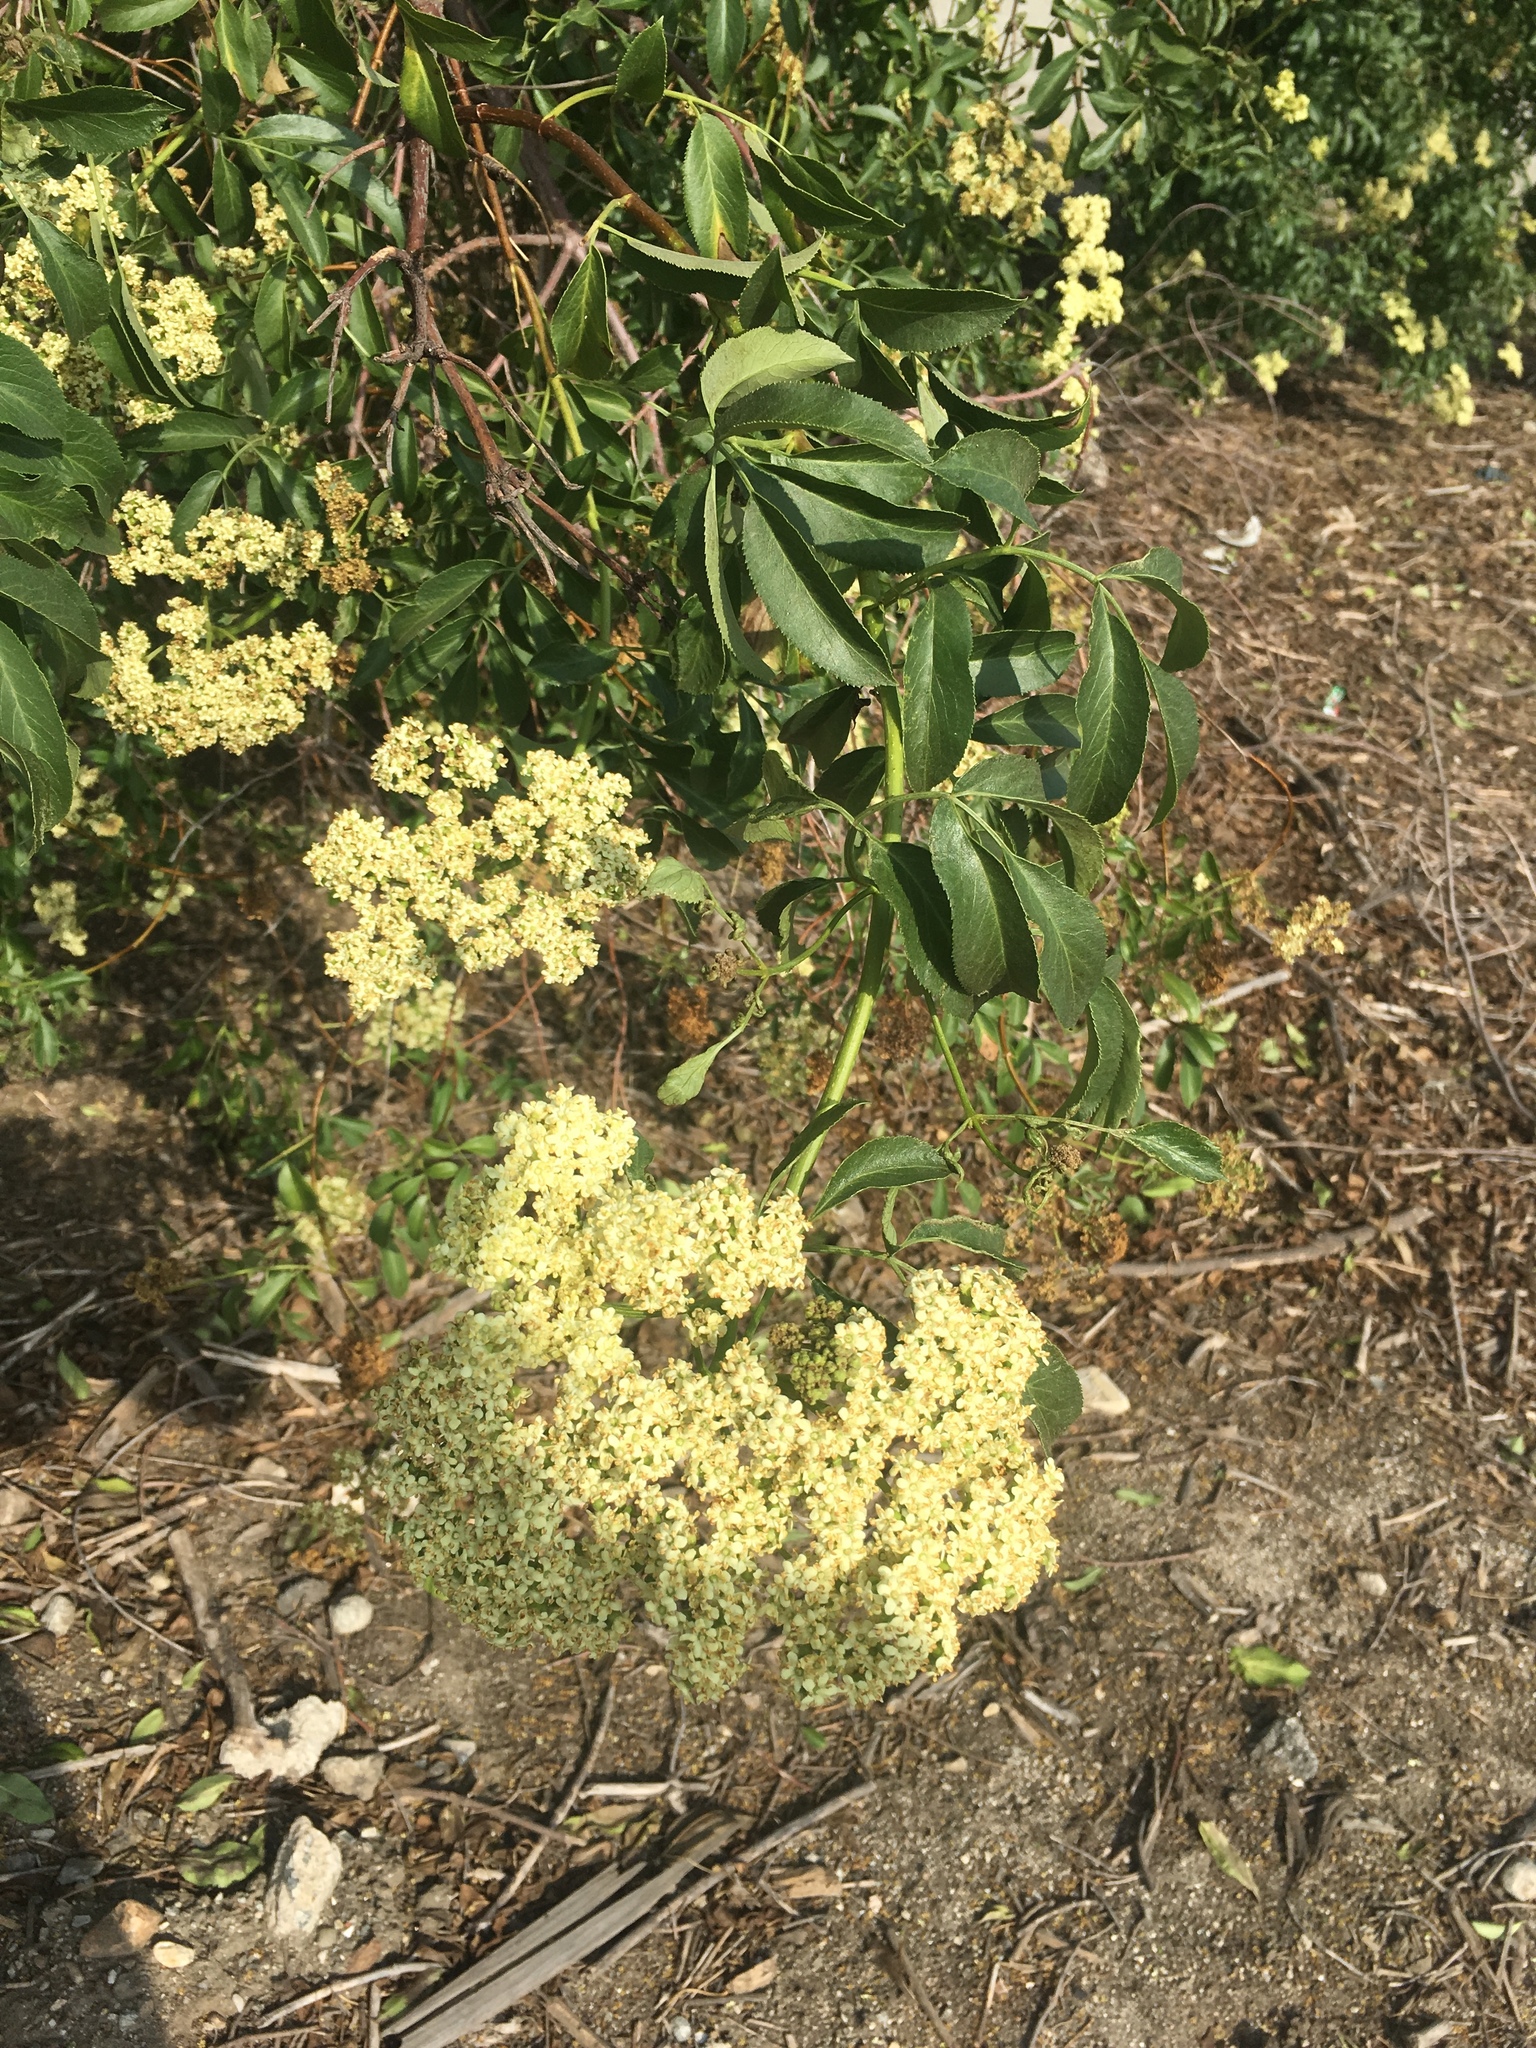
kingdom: Plantae
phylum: Tracheophyta
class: Magnoliopsida
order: Dipsacales
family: Viburnaceae
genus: Sambucus
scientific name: Sambucus cerulea
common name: Blue elder
